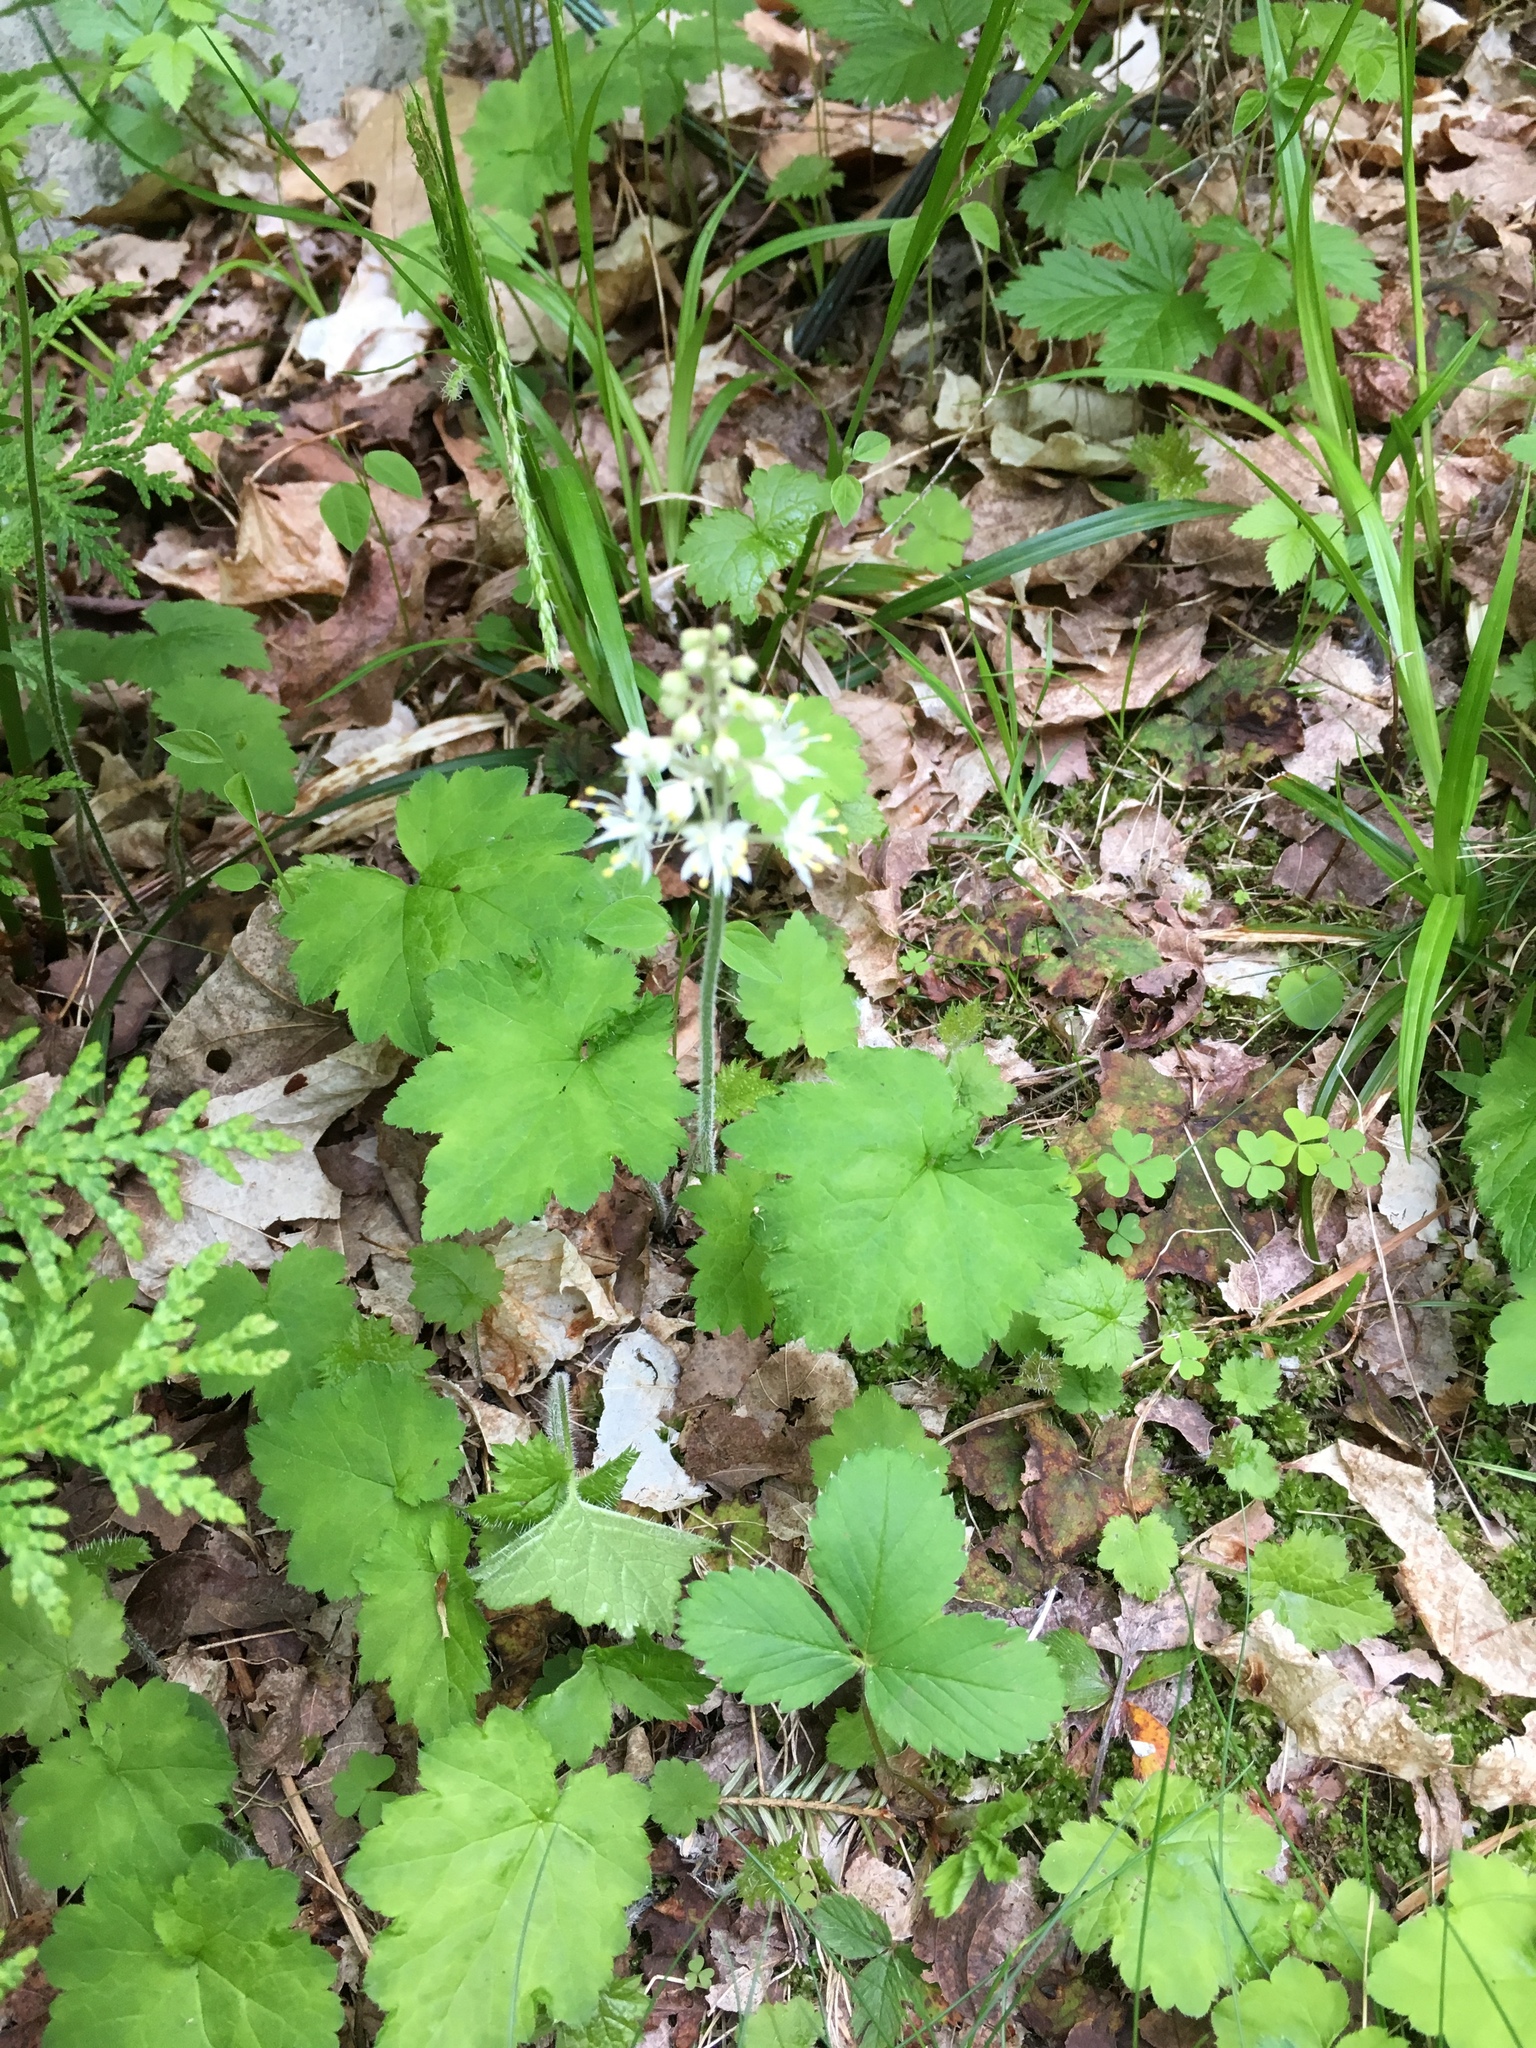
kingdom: Plantae
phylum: Tracheophyta
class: Magnoliopsida
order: Saxifragales
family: Saxifragaceae
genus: Tiarella
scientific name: Tiarella stolonifera
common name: Stoloniferous foamflower
